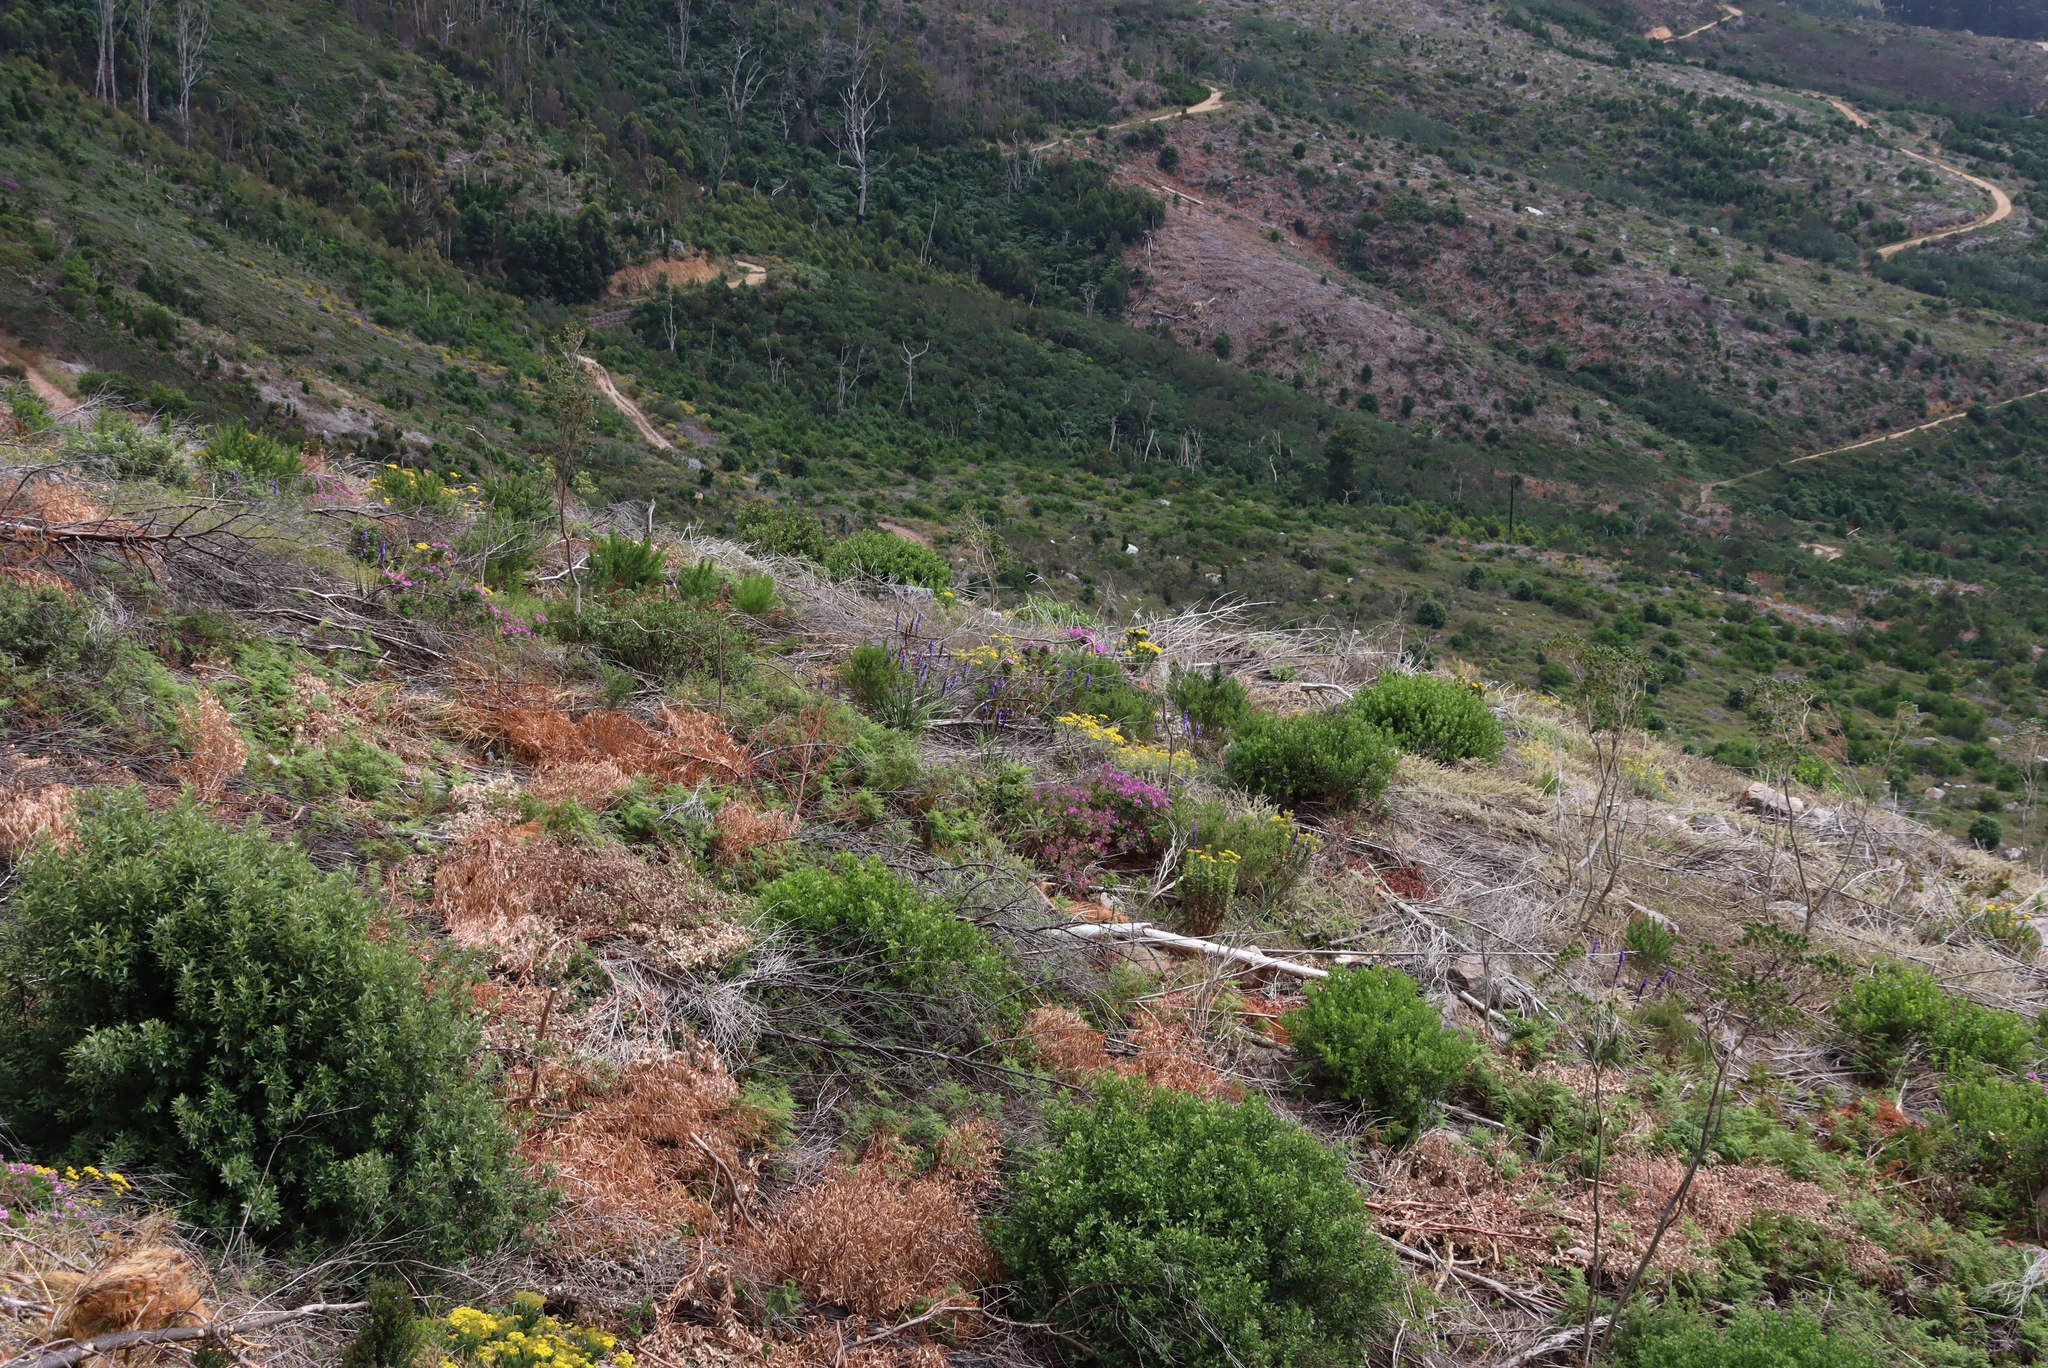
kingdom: Plantae
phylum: Tracheophyta
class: Liliopsida
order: Asparagales
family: Iridaceae
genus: Aristea
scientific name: Aristea capitata
